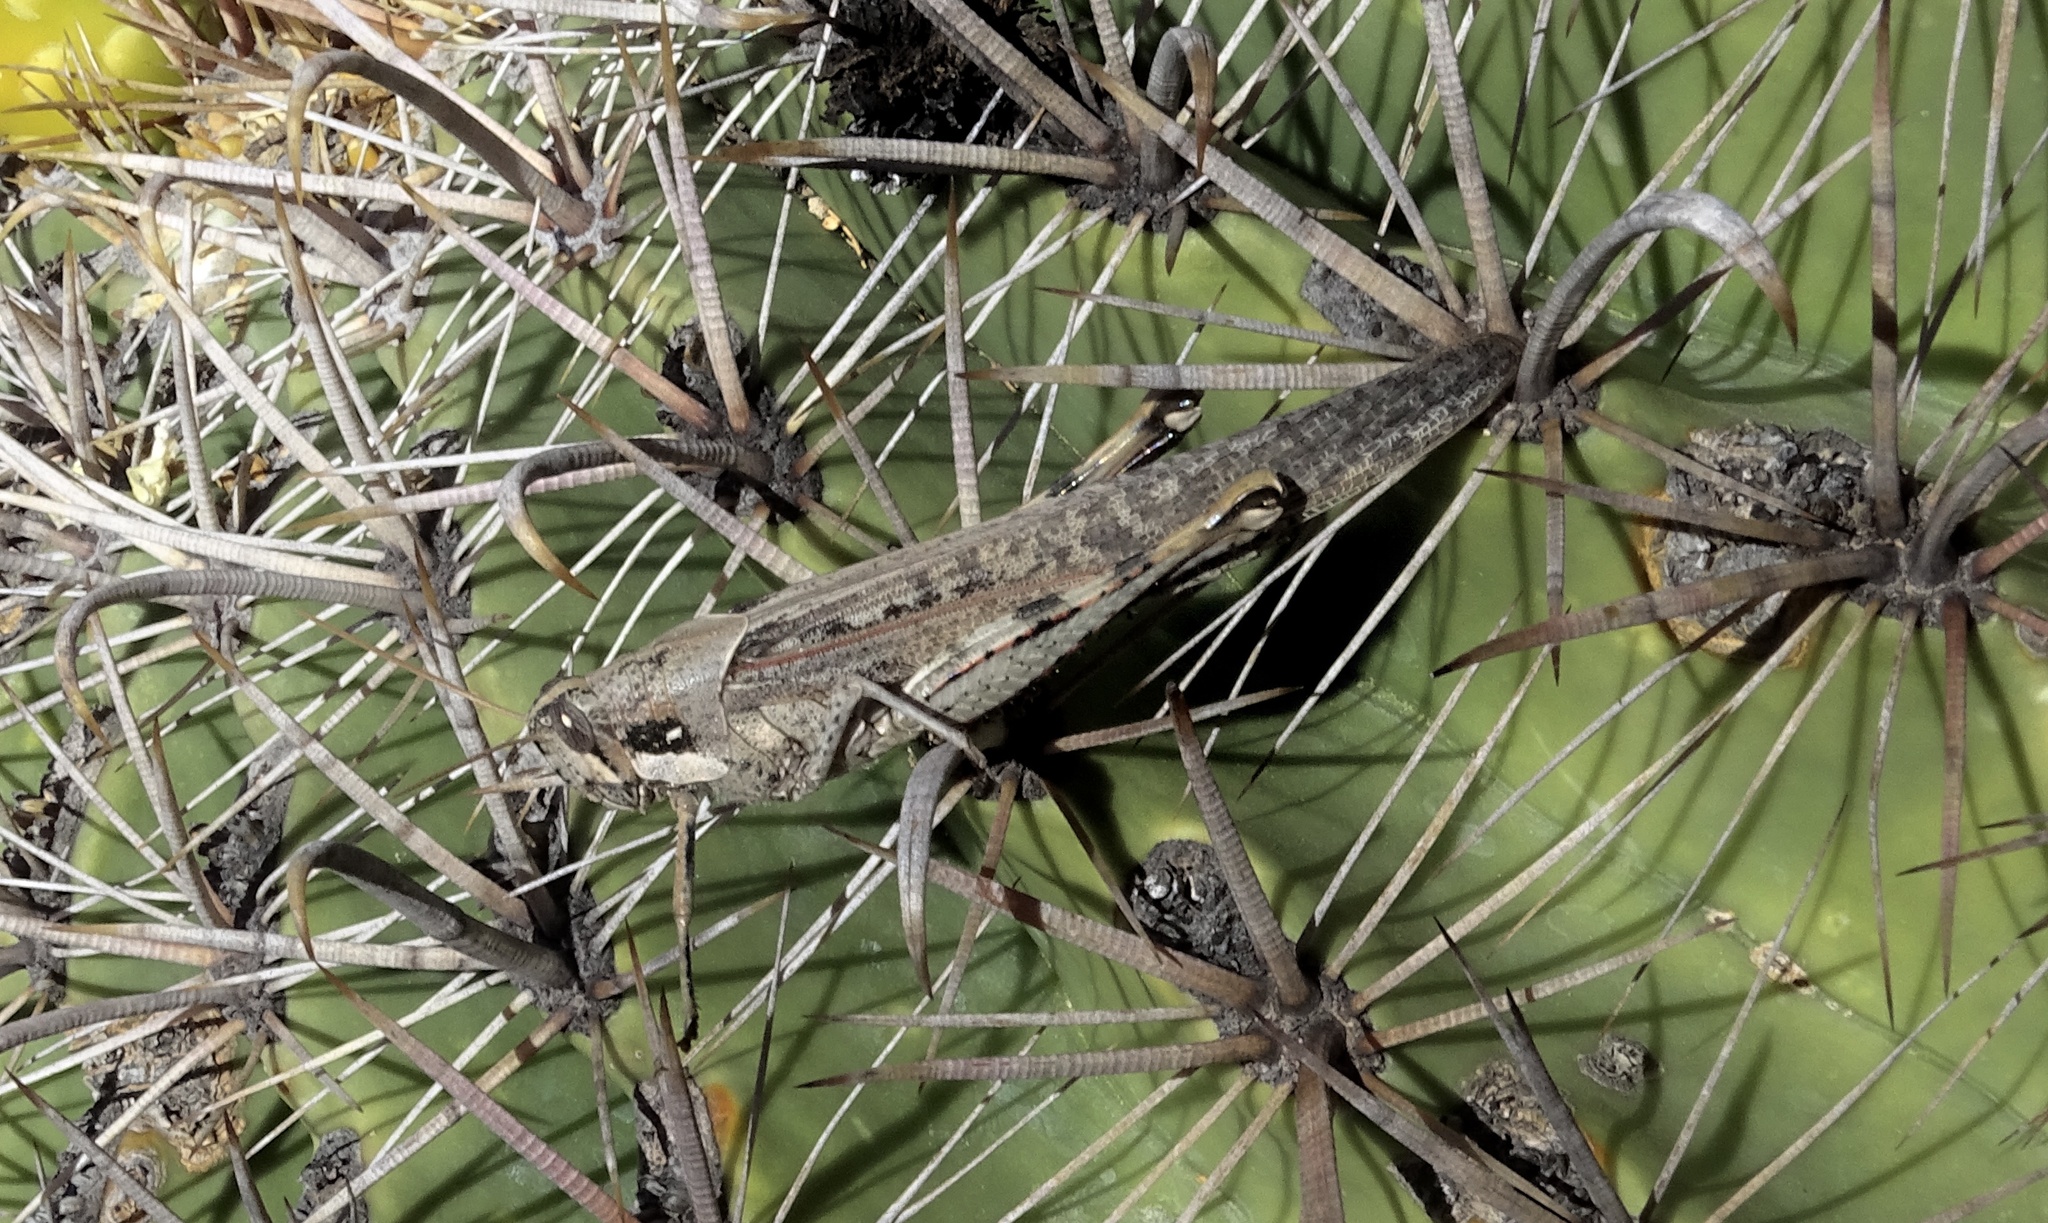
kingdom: Animalia
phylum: Arthropoda
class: Insecta
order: Orthoptera
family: Acrididae
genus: Schistocerca
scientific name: Schistocerca nitens
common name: Vagrant grasshopper
